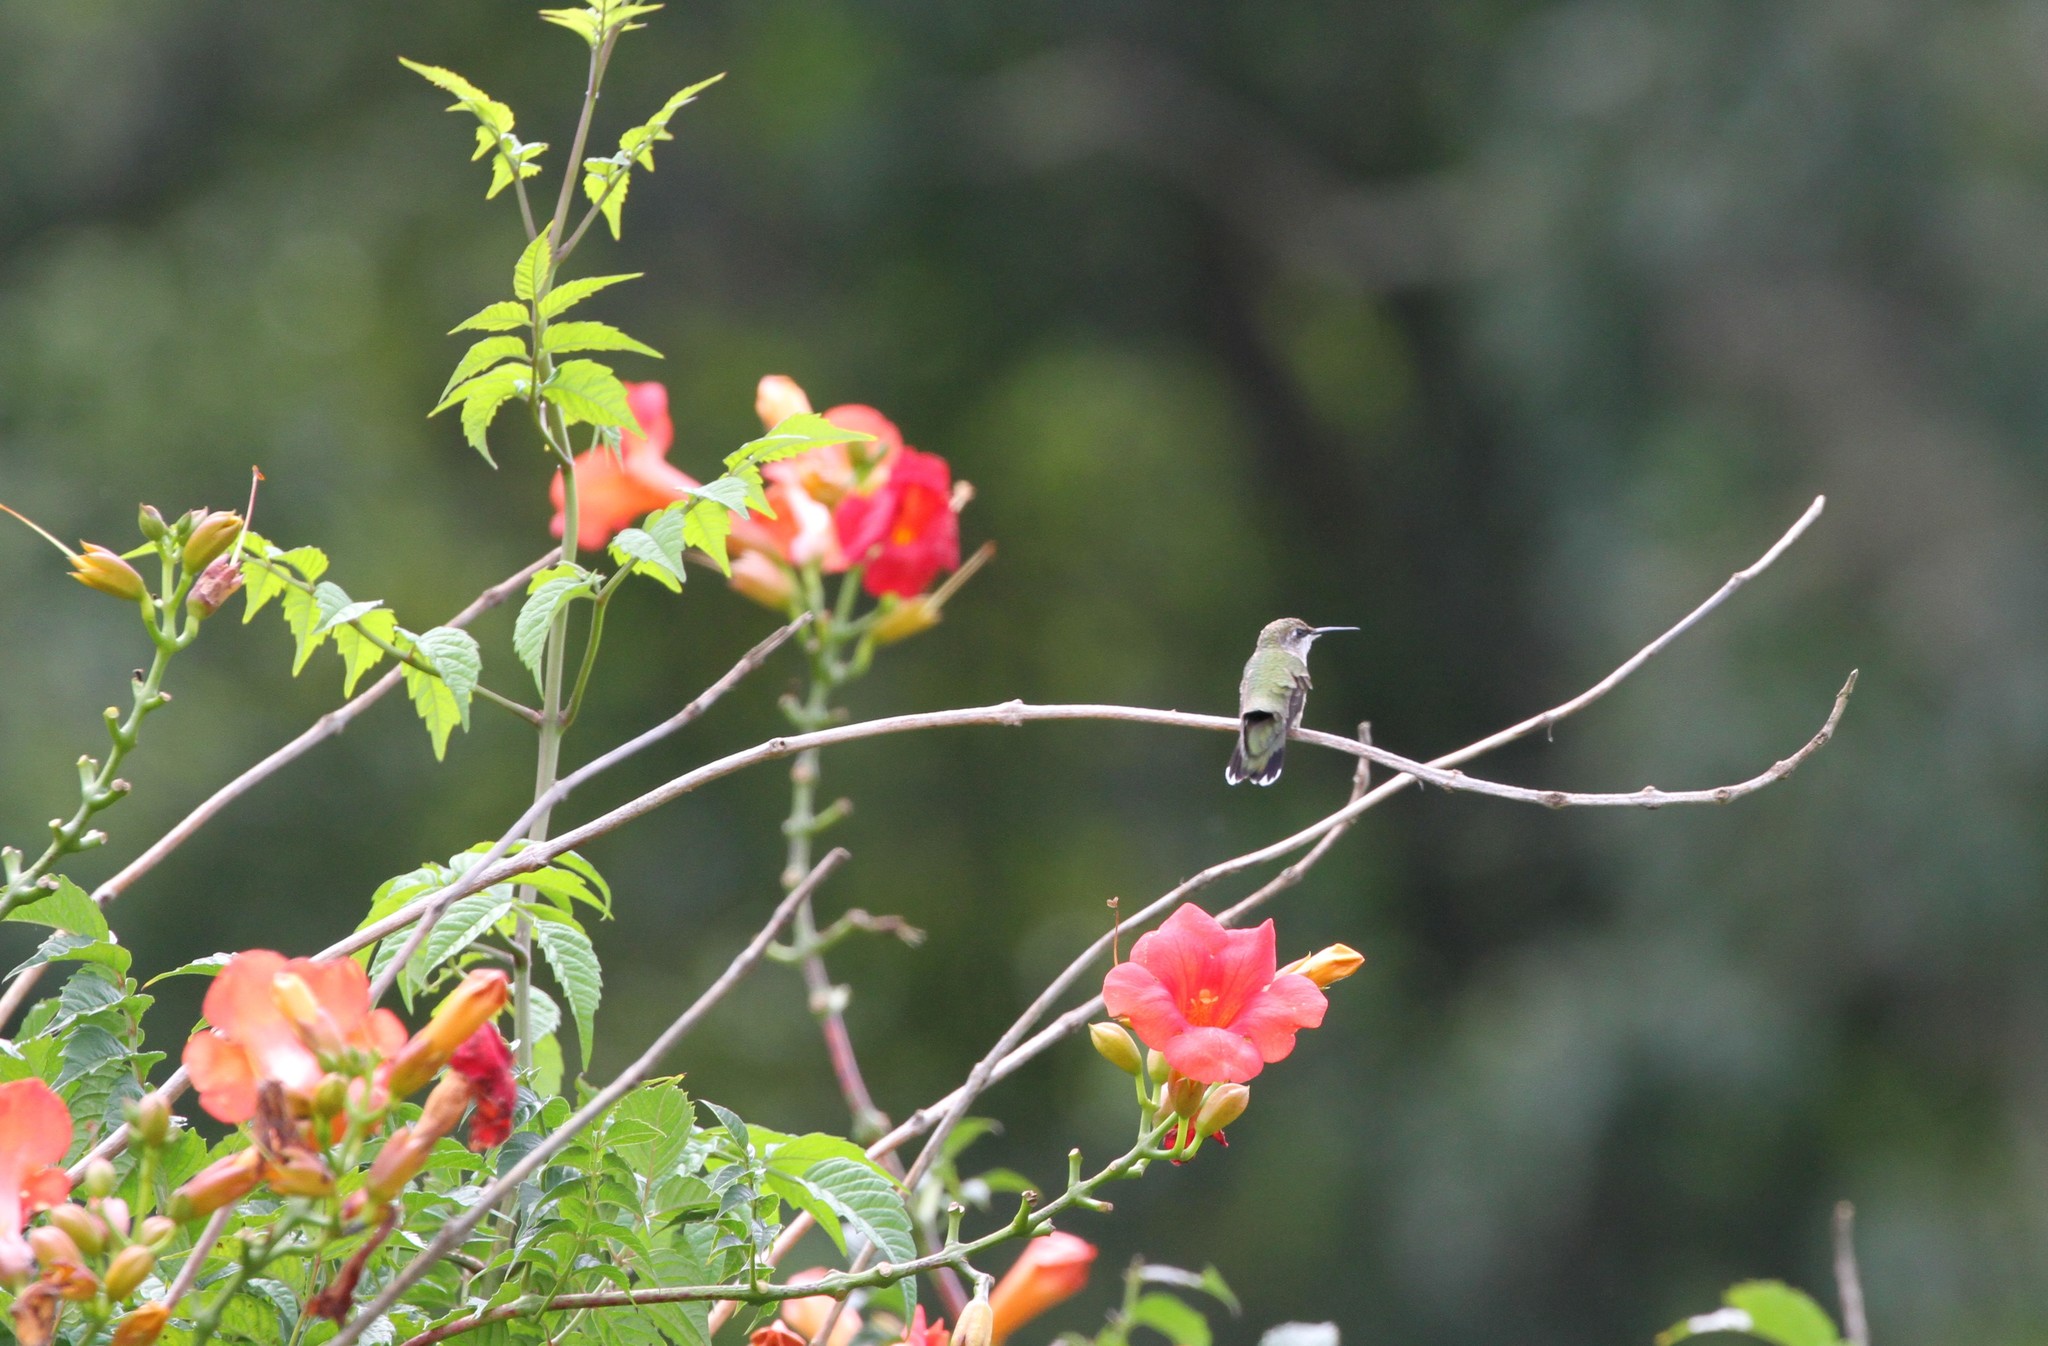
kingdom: Animalia
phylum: Chordata
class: Aves
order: Apodiformes
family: Trochilidae
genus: Archilochus
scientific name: Archilochus colubris
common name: Ruby-throated hummingbird
